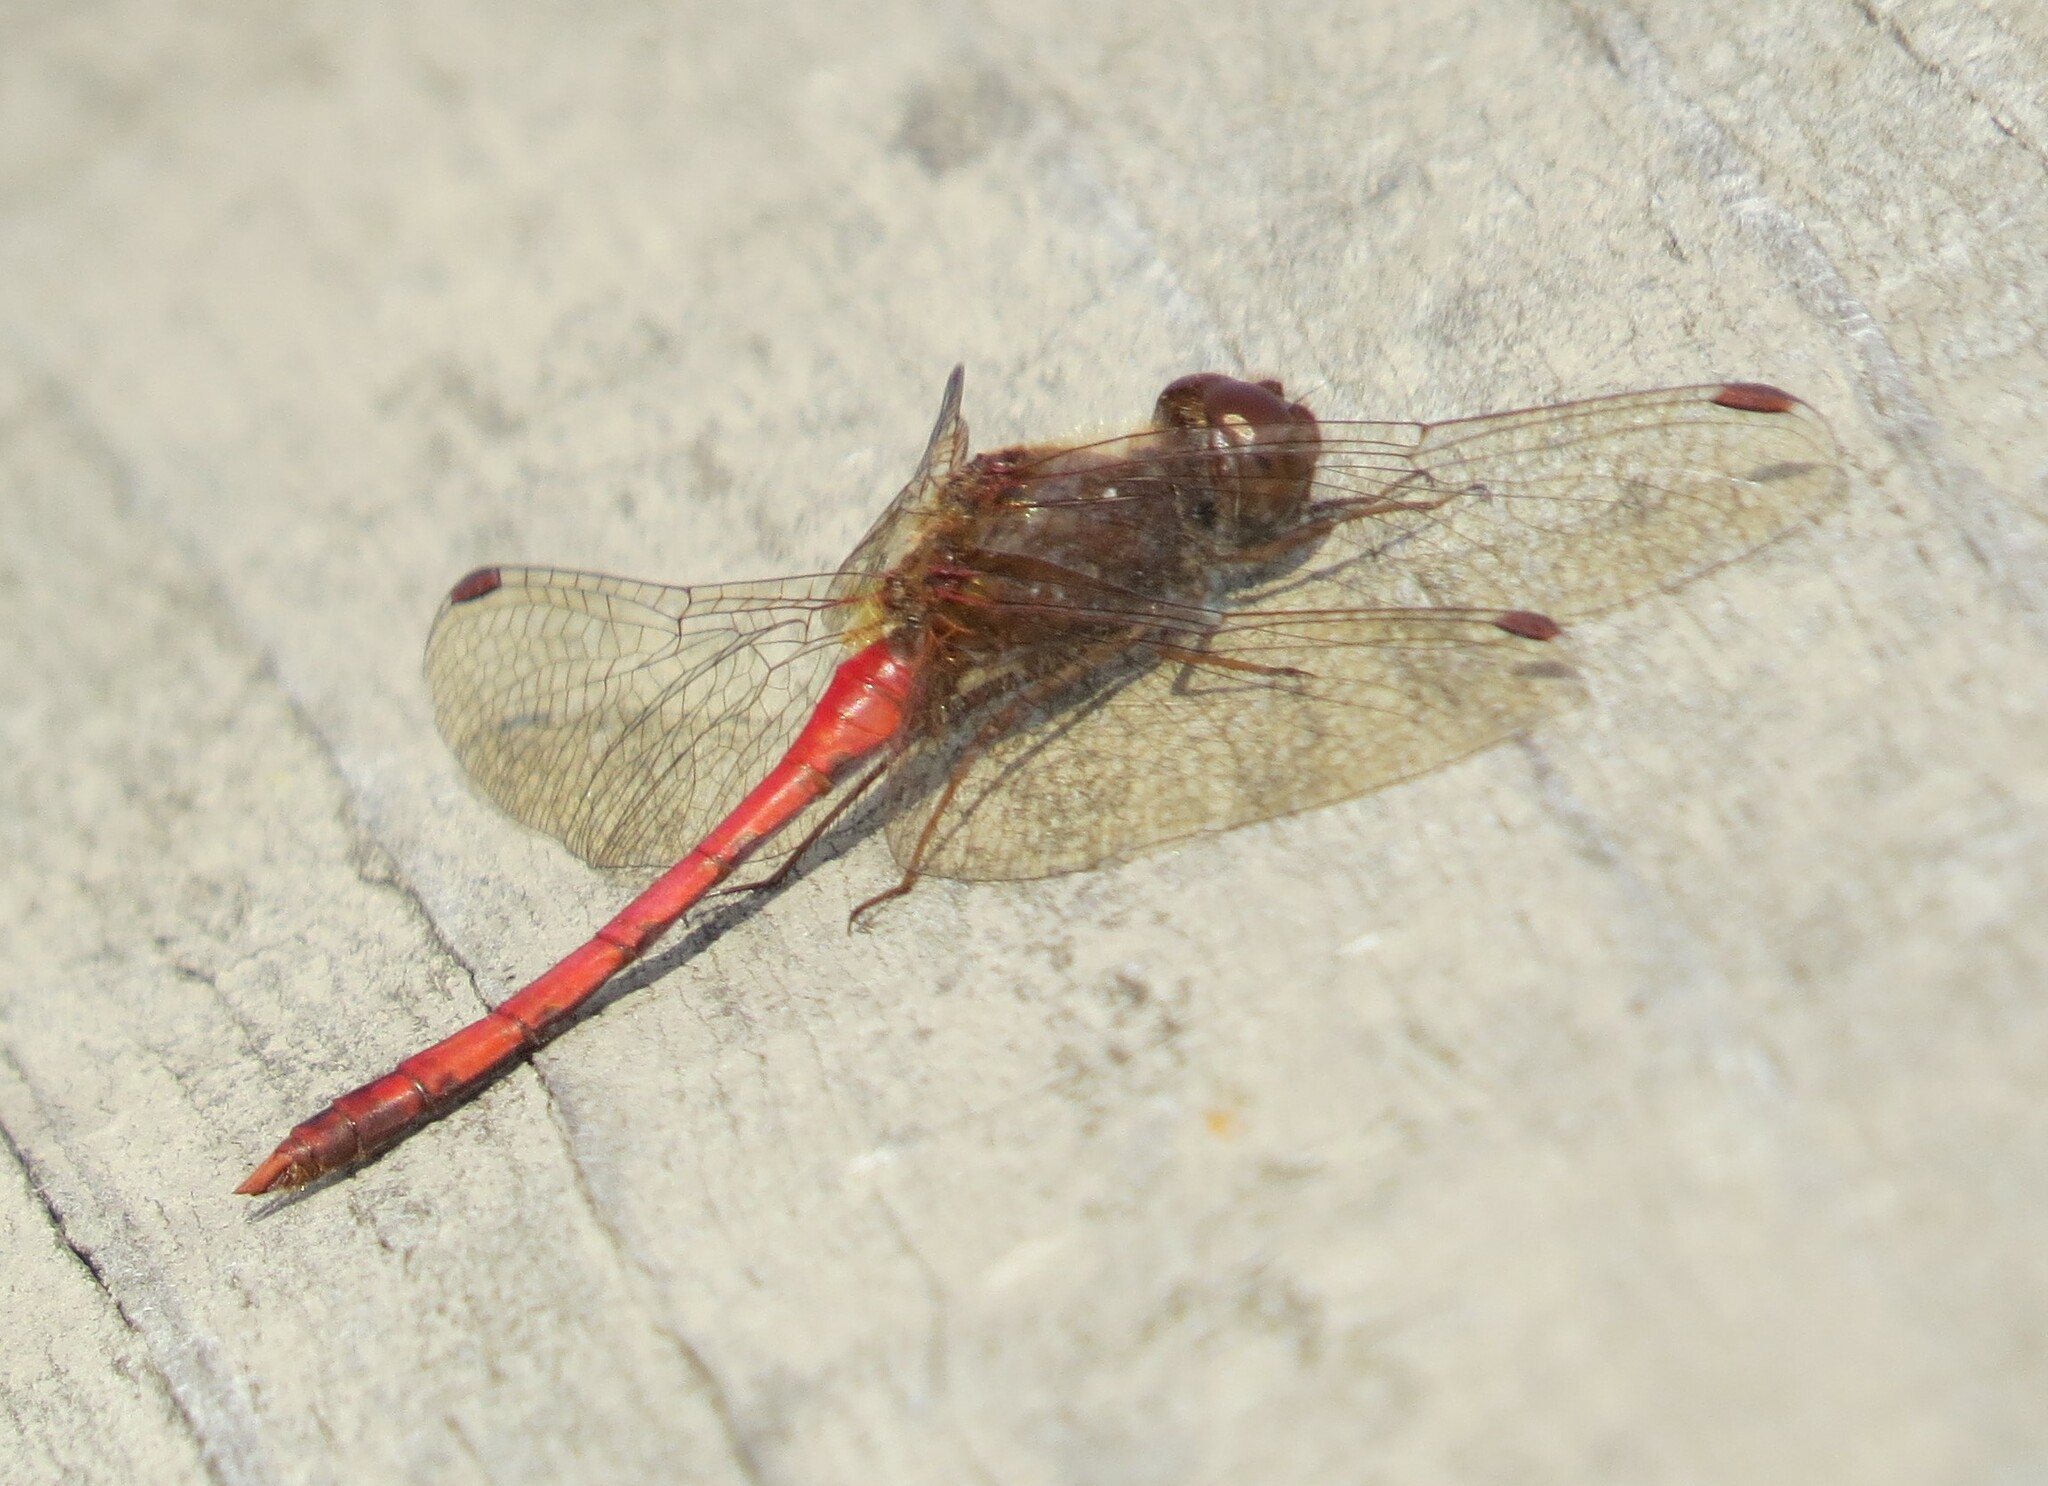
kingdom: Animalia
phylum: Arthropoda
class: Insecta
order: Odonata
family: Libellulidae
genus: Sympetrum
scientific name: Sympetrum vicinum
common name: Autumn meadowhawk
